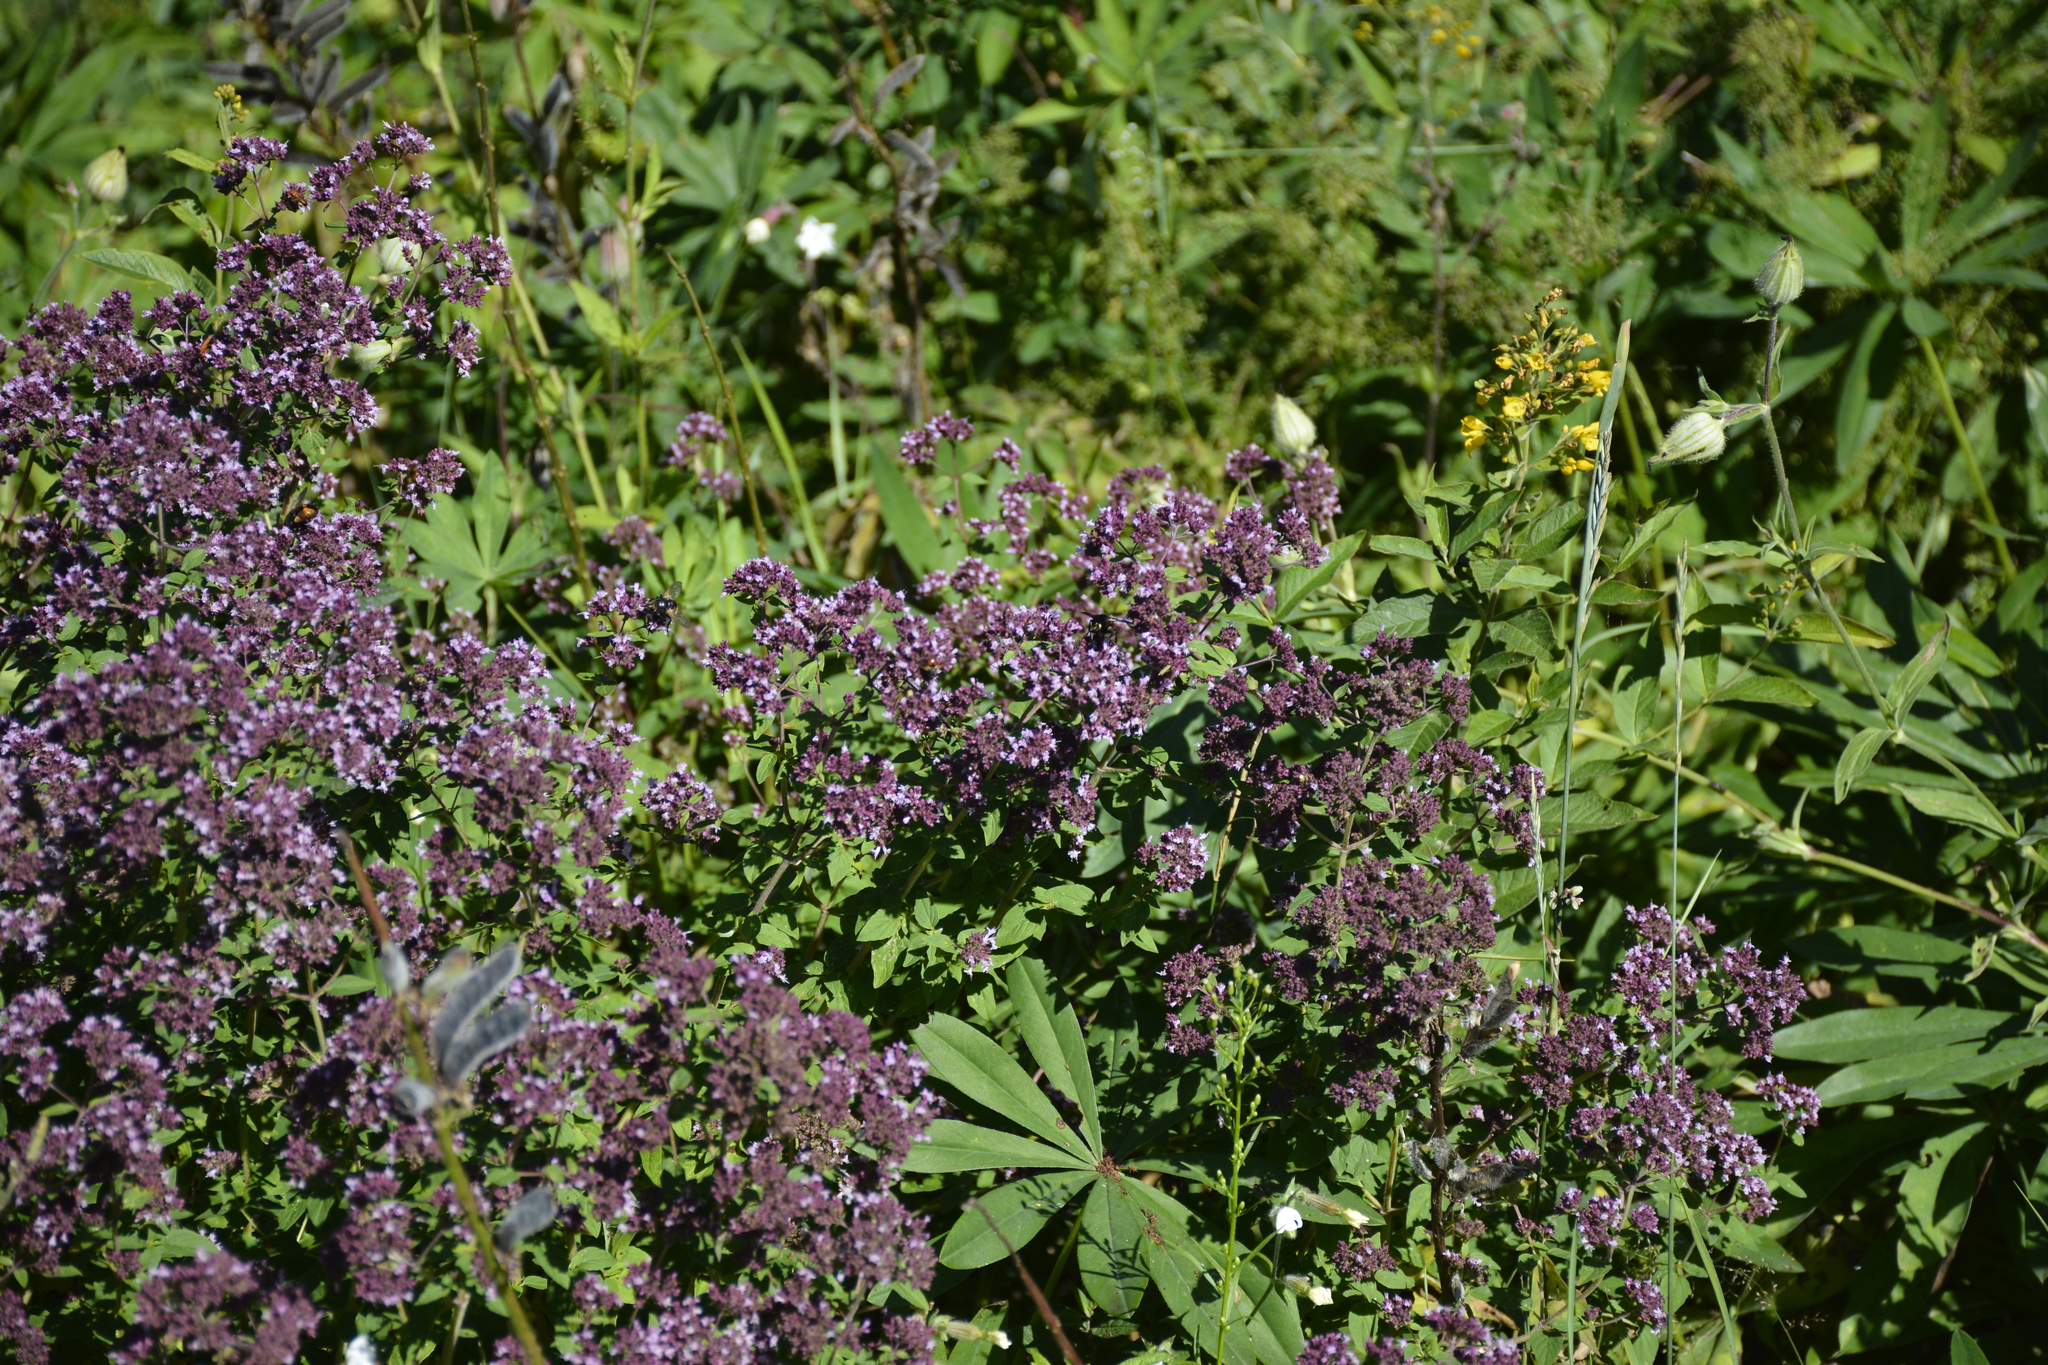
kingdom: Plantae
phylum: Tracheophyta
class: Magnoliopsida
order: Lamiales
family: Lamiaceae
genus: Origanum
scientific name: Origanum vulgare
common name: Wild marjoram
